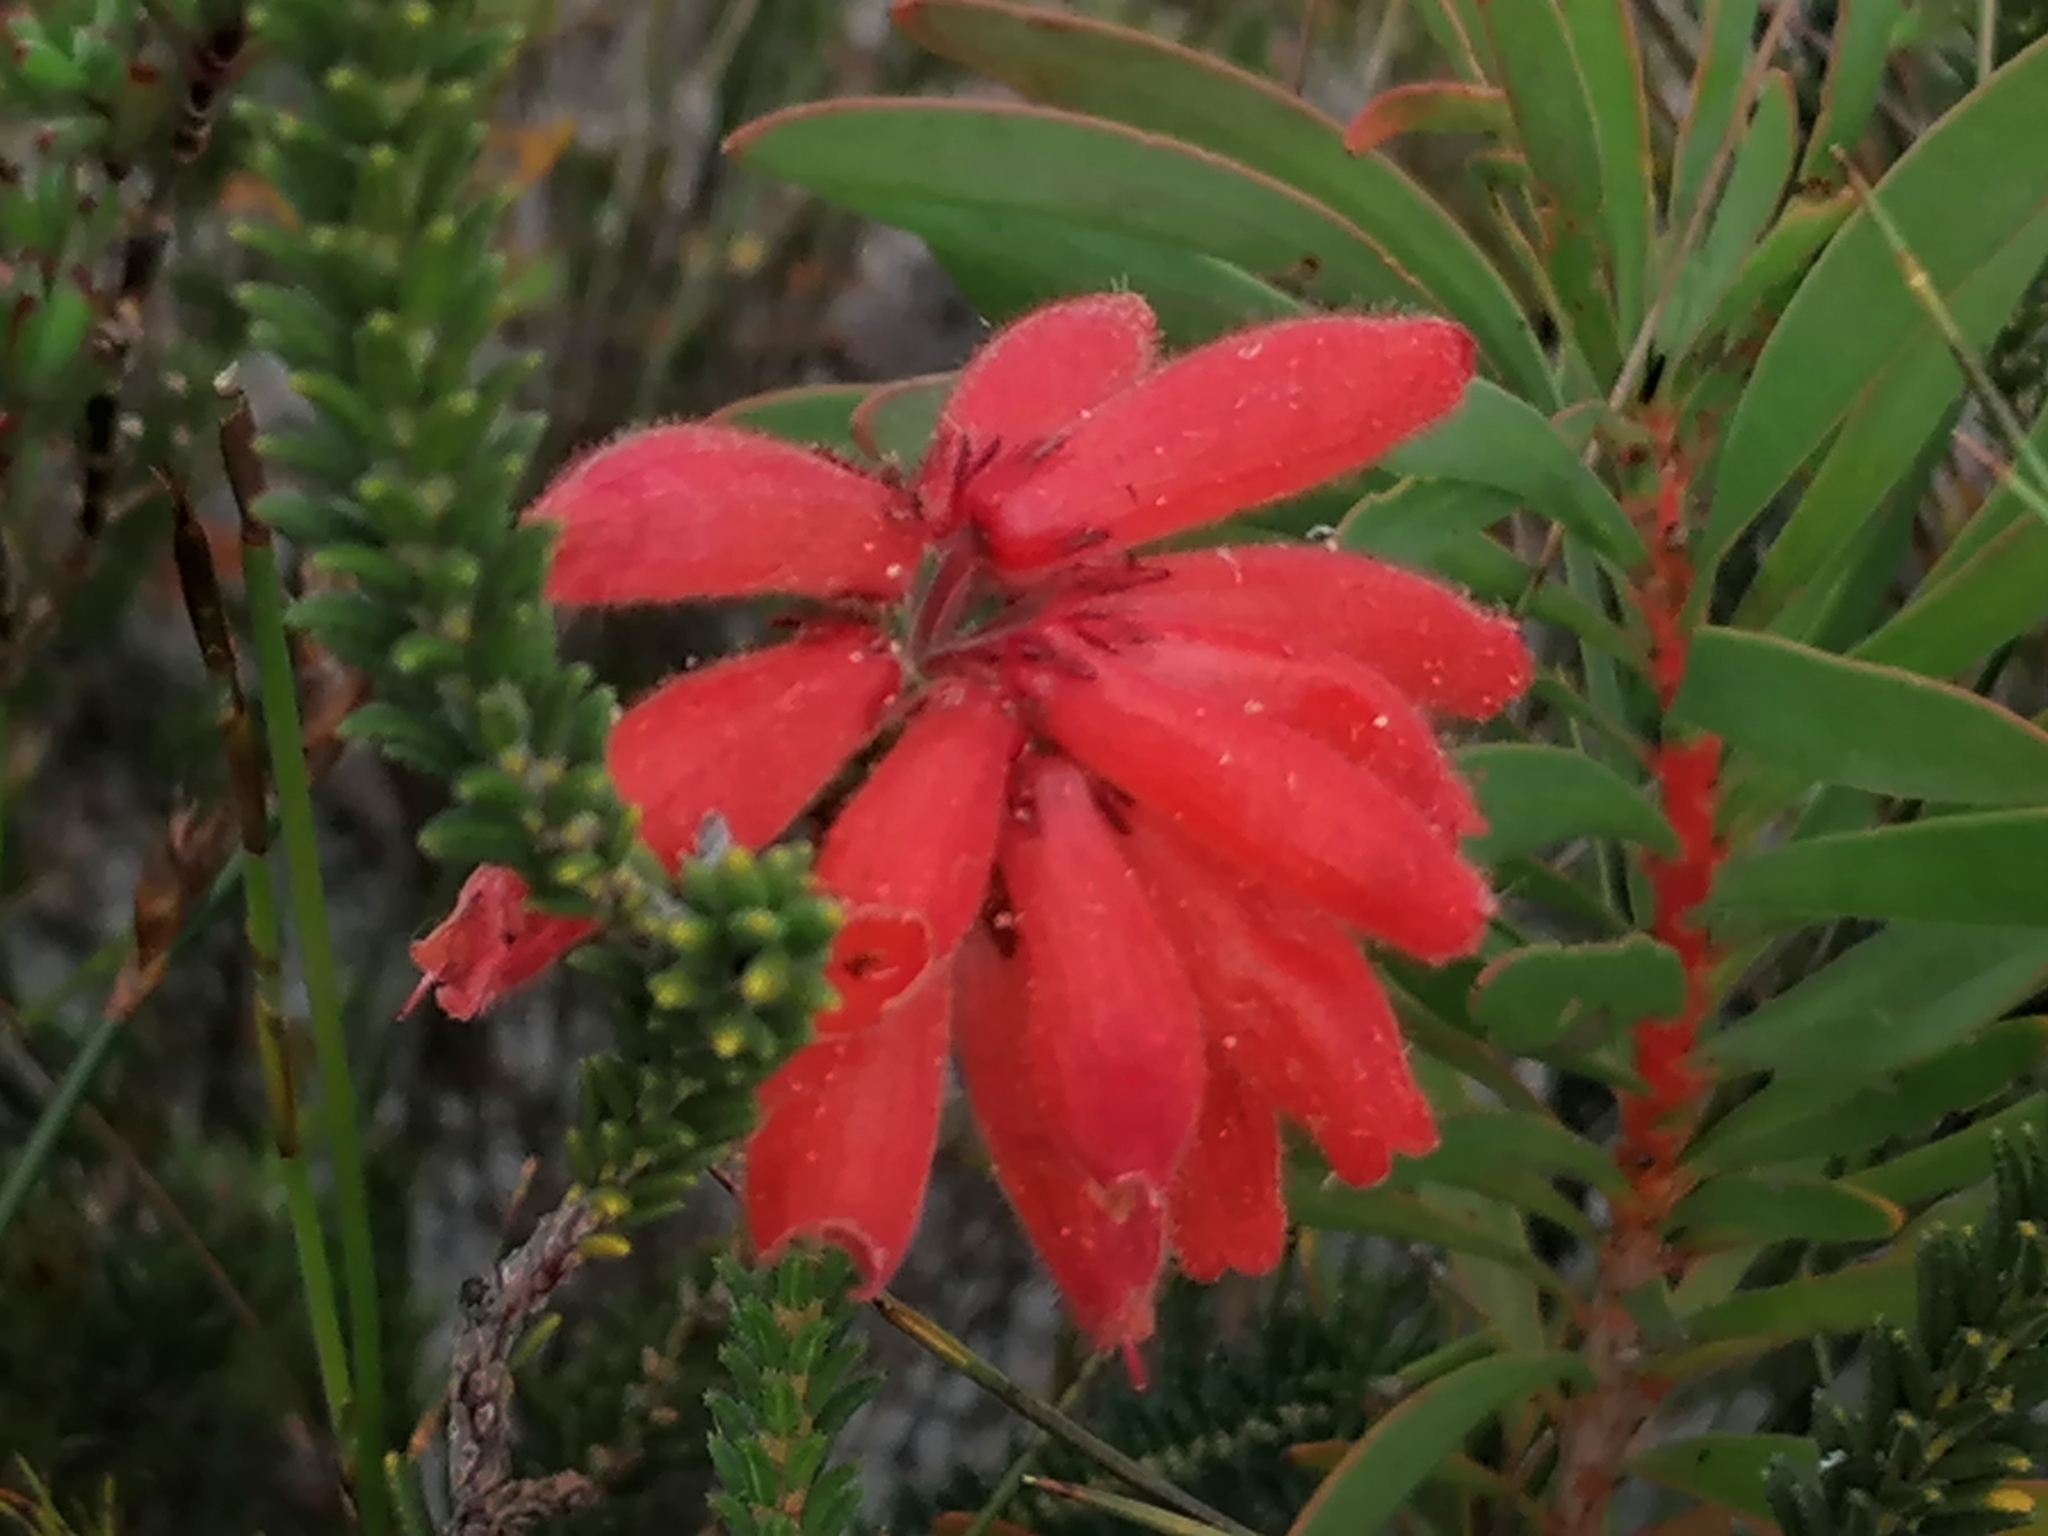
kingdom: Plantae
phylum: Tracheophyta
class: Magnoliopsida
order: Ericales
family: Ericaceae
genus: Erica
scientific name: Erica cerinthoides
